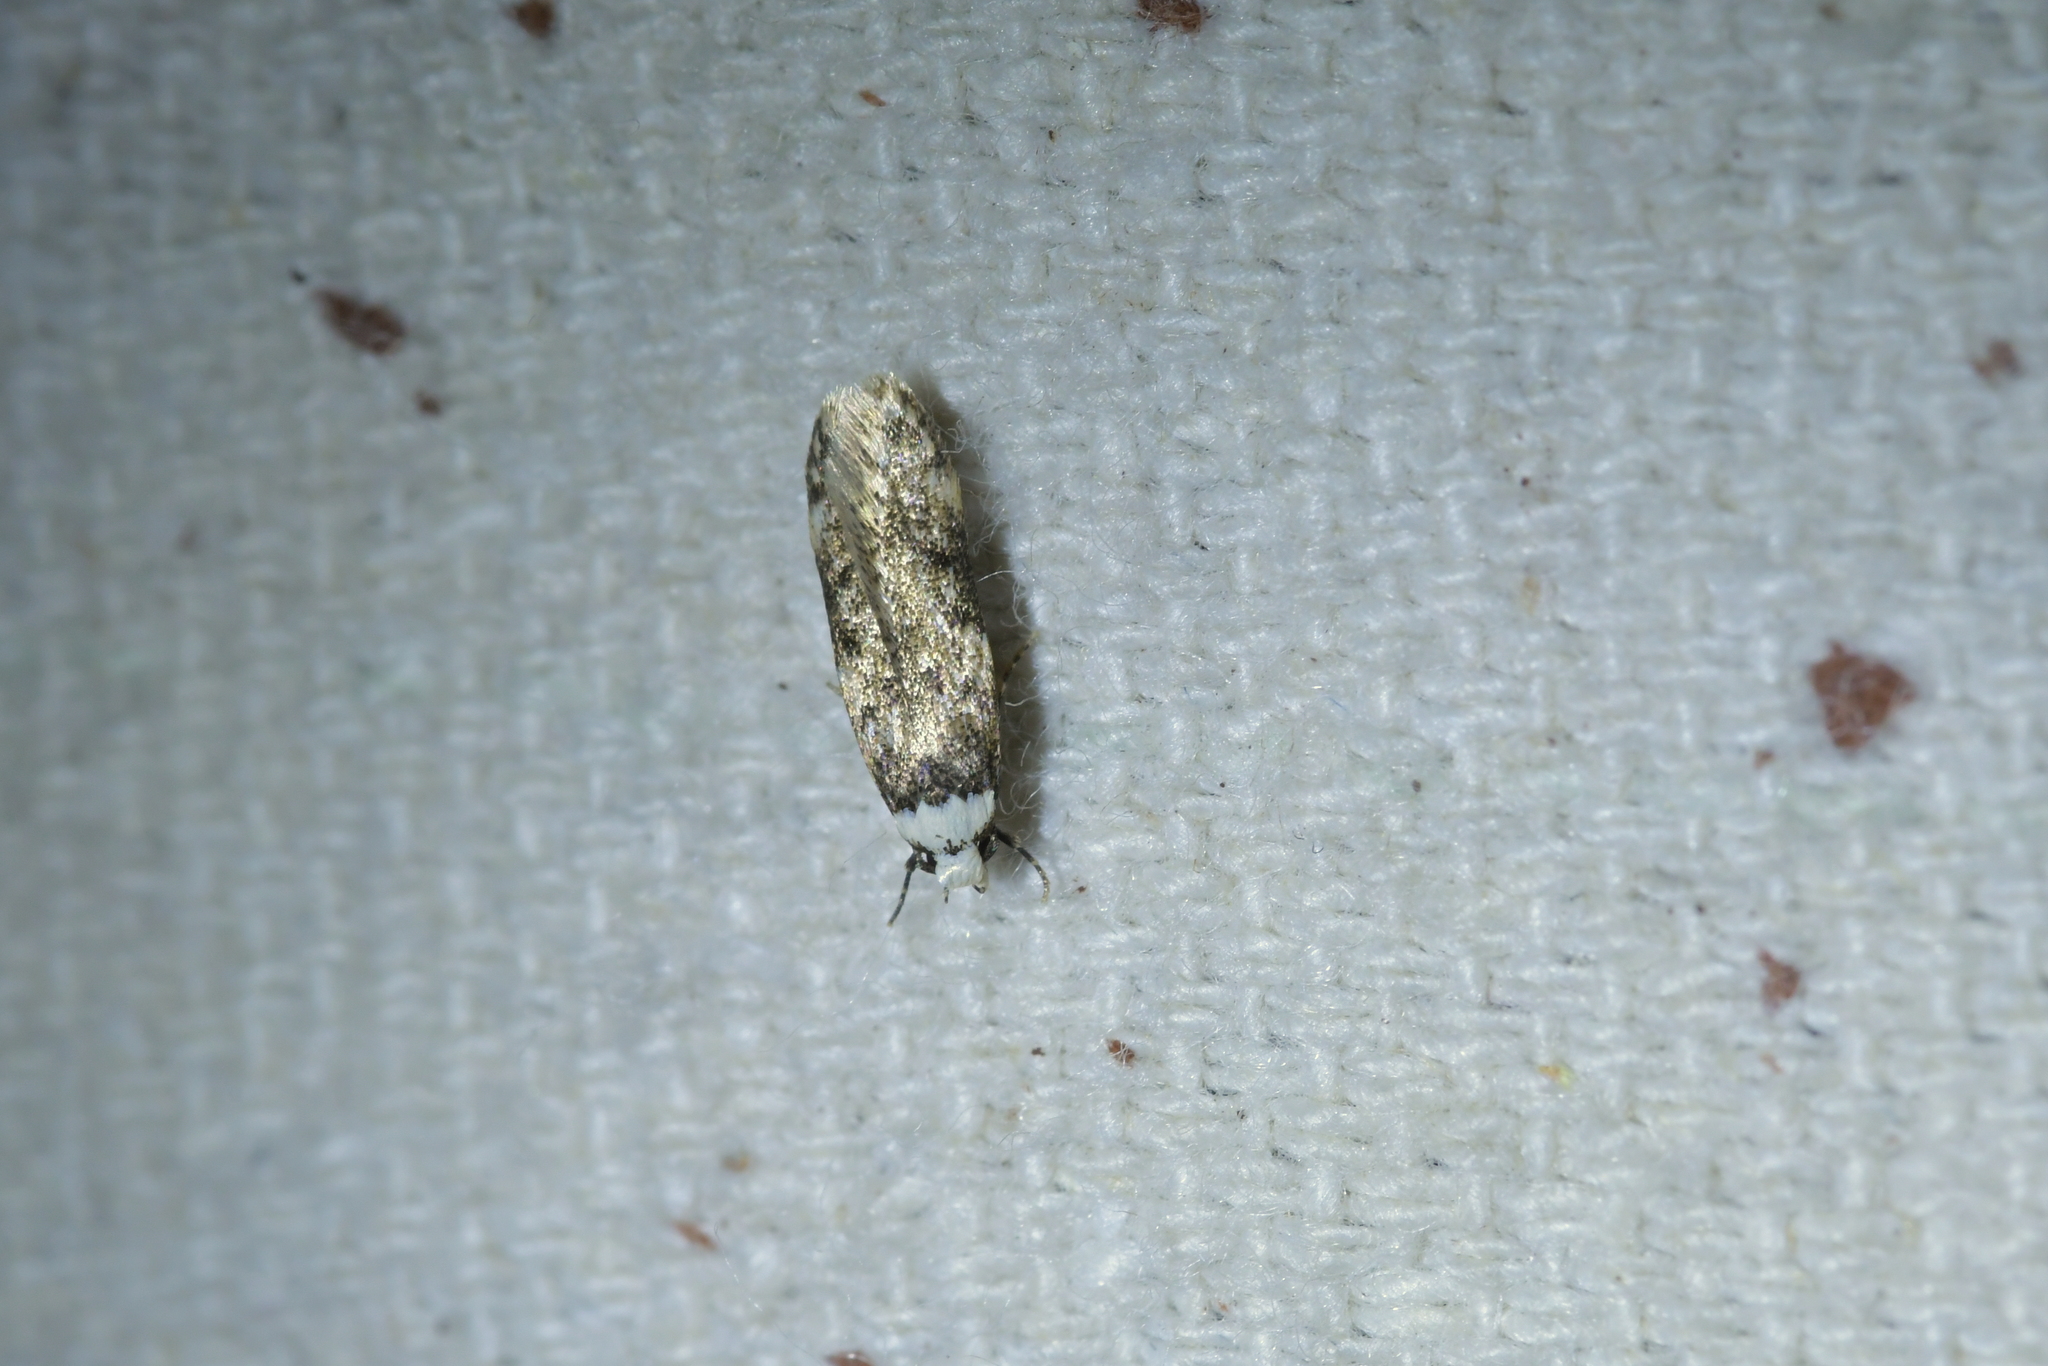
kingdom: Animalia
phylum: Arthropoda
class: Insecta
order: Lepidoptera
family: Oecophoridae
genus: Endrosis
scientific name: Endrosis sarcitrella
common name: White-shouldered house moth
